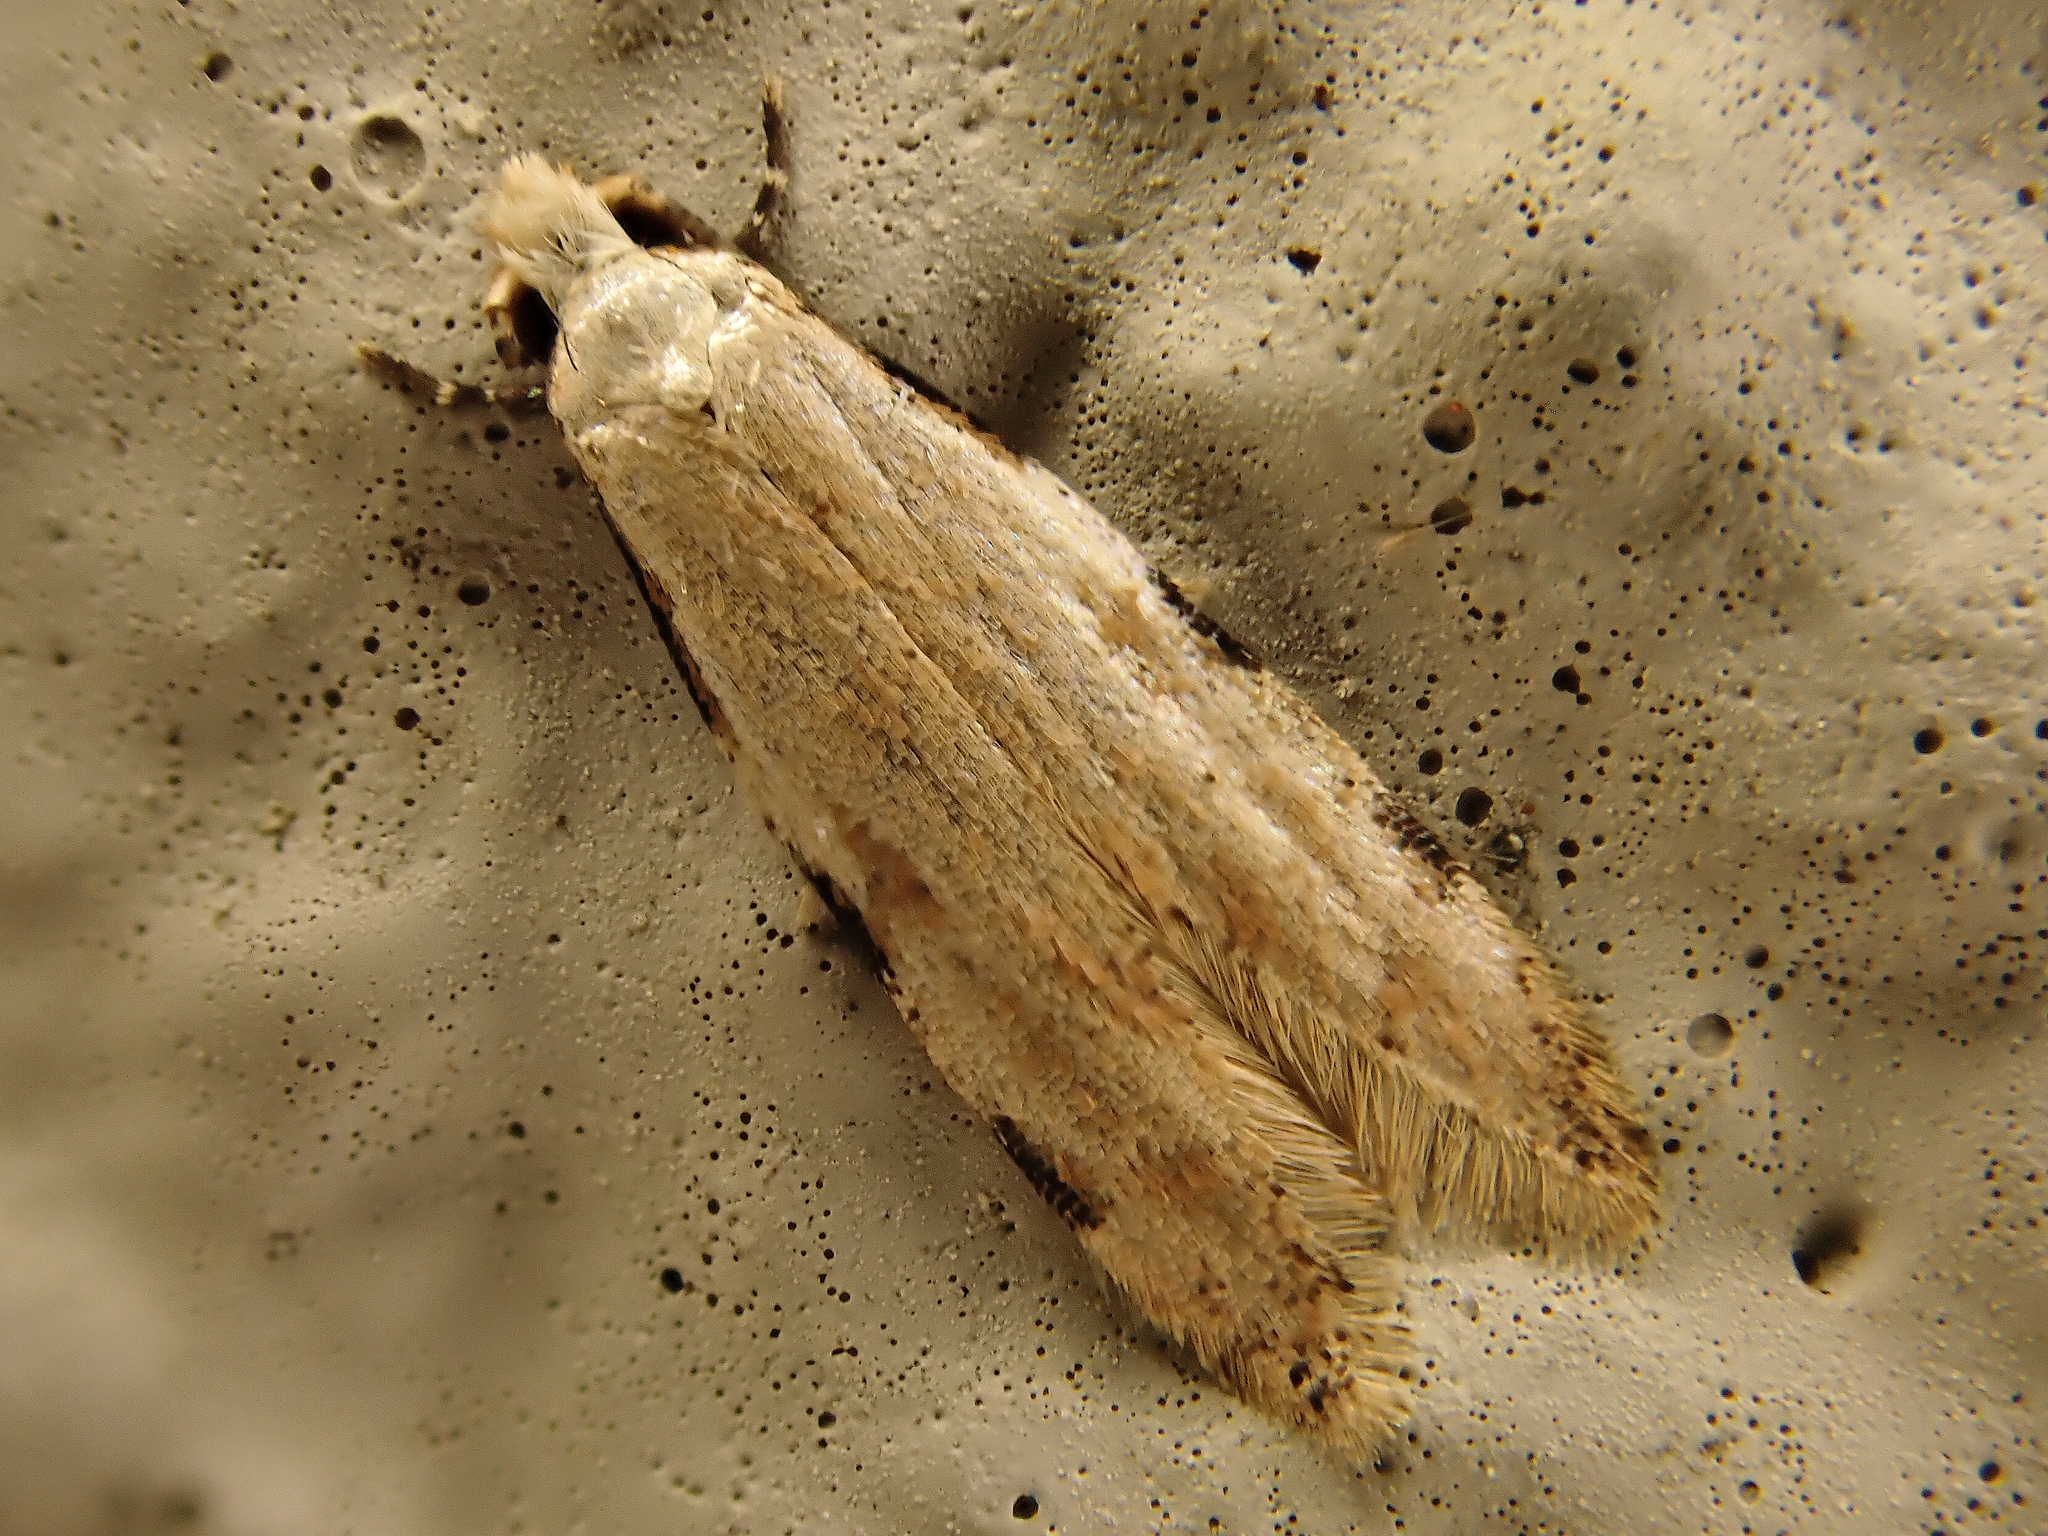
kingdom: Animalia
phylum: Arthropoda
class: Insecta
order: Lepidoptera
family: Tineidae
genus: Endophthora
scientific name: Endophthora omogramma
